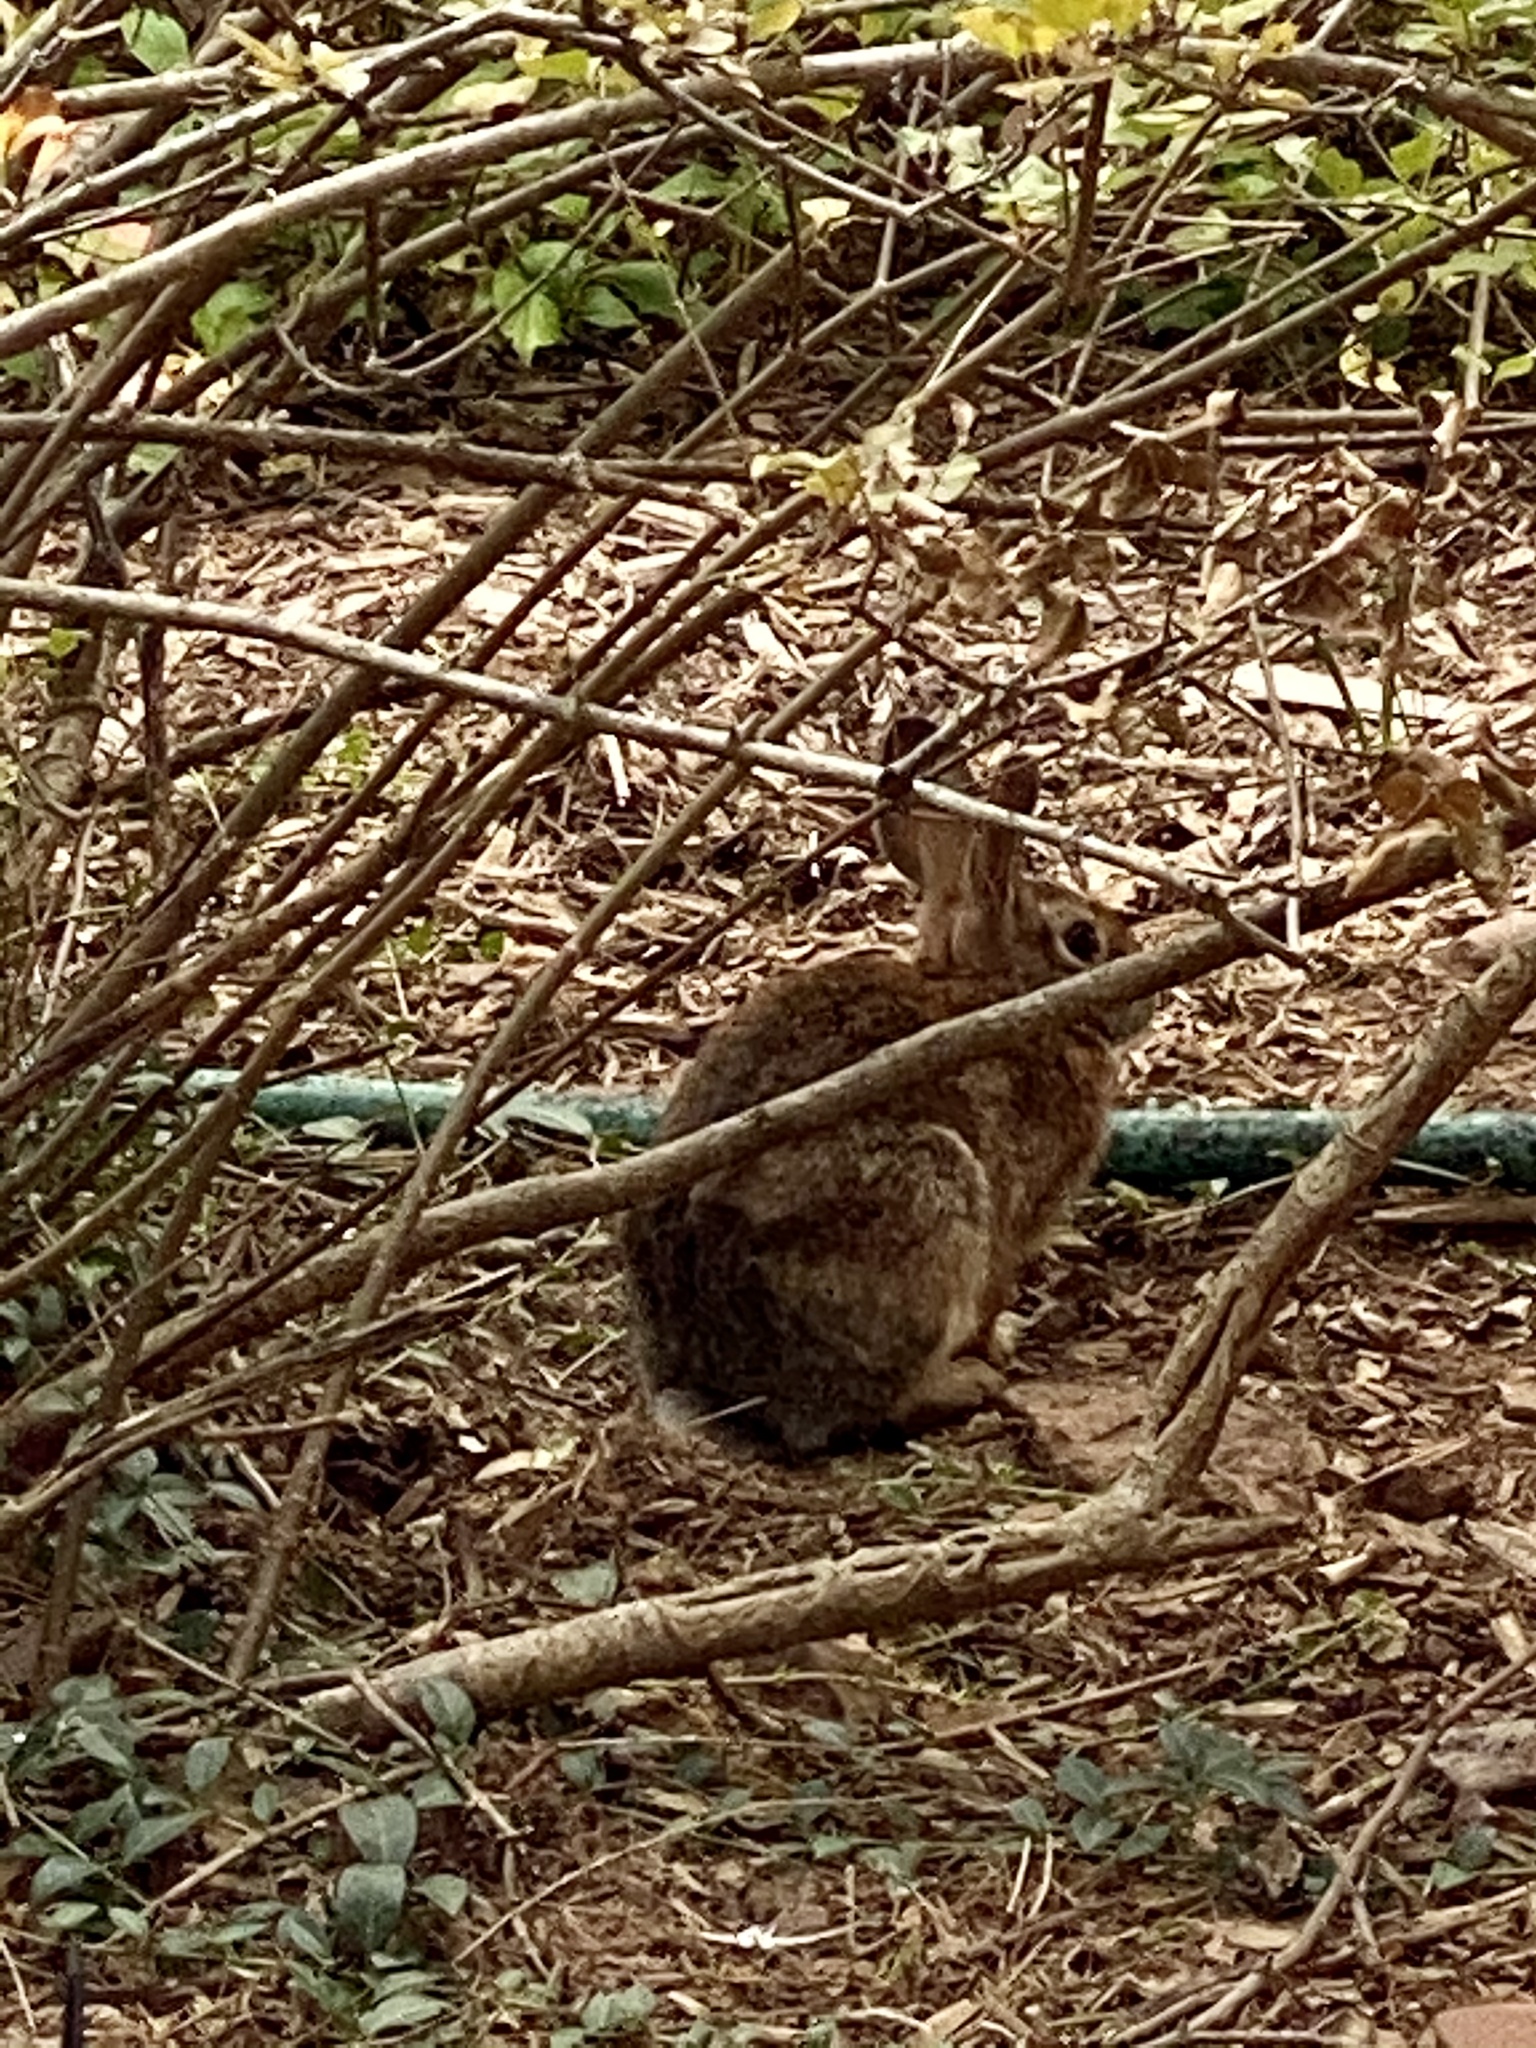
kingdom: Animalia
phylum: Chordata
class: Mammalia
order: Lagomorpha
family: Leporidae
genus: Sylvilagus
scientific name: Sylvilagus floridanus
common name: Eastern cottontail
